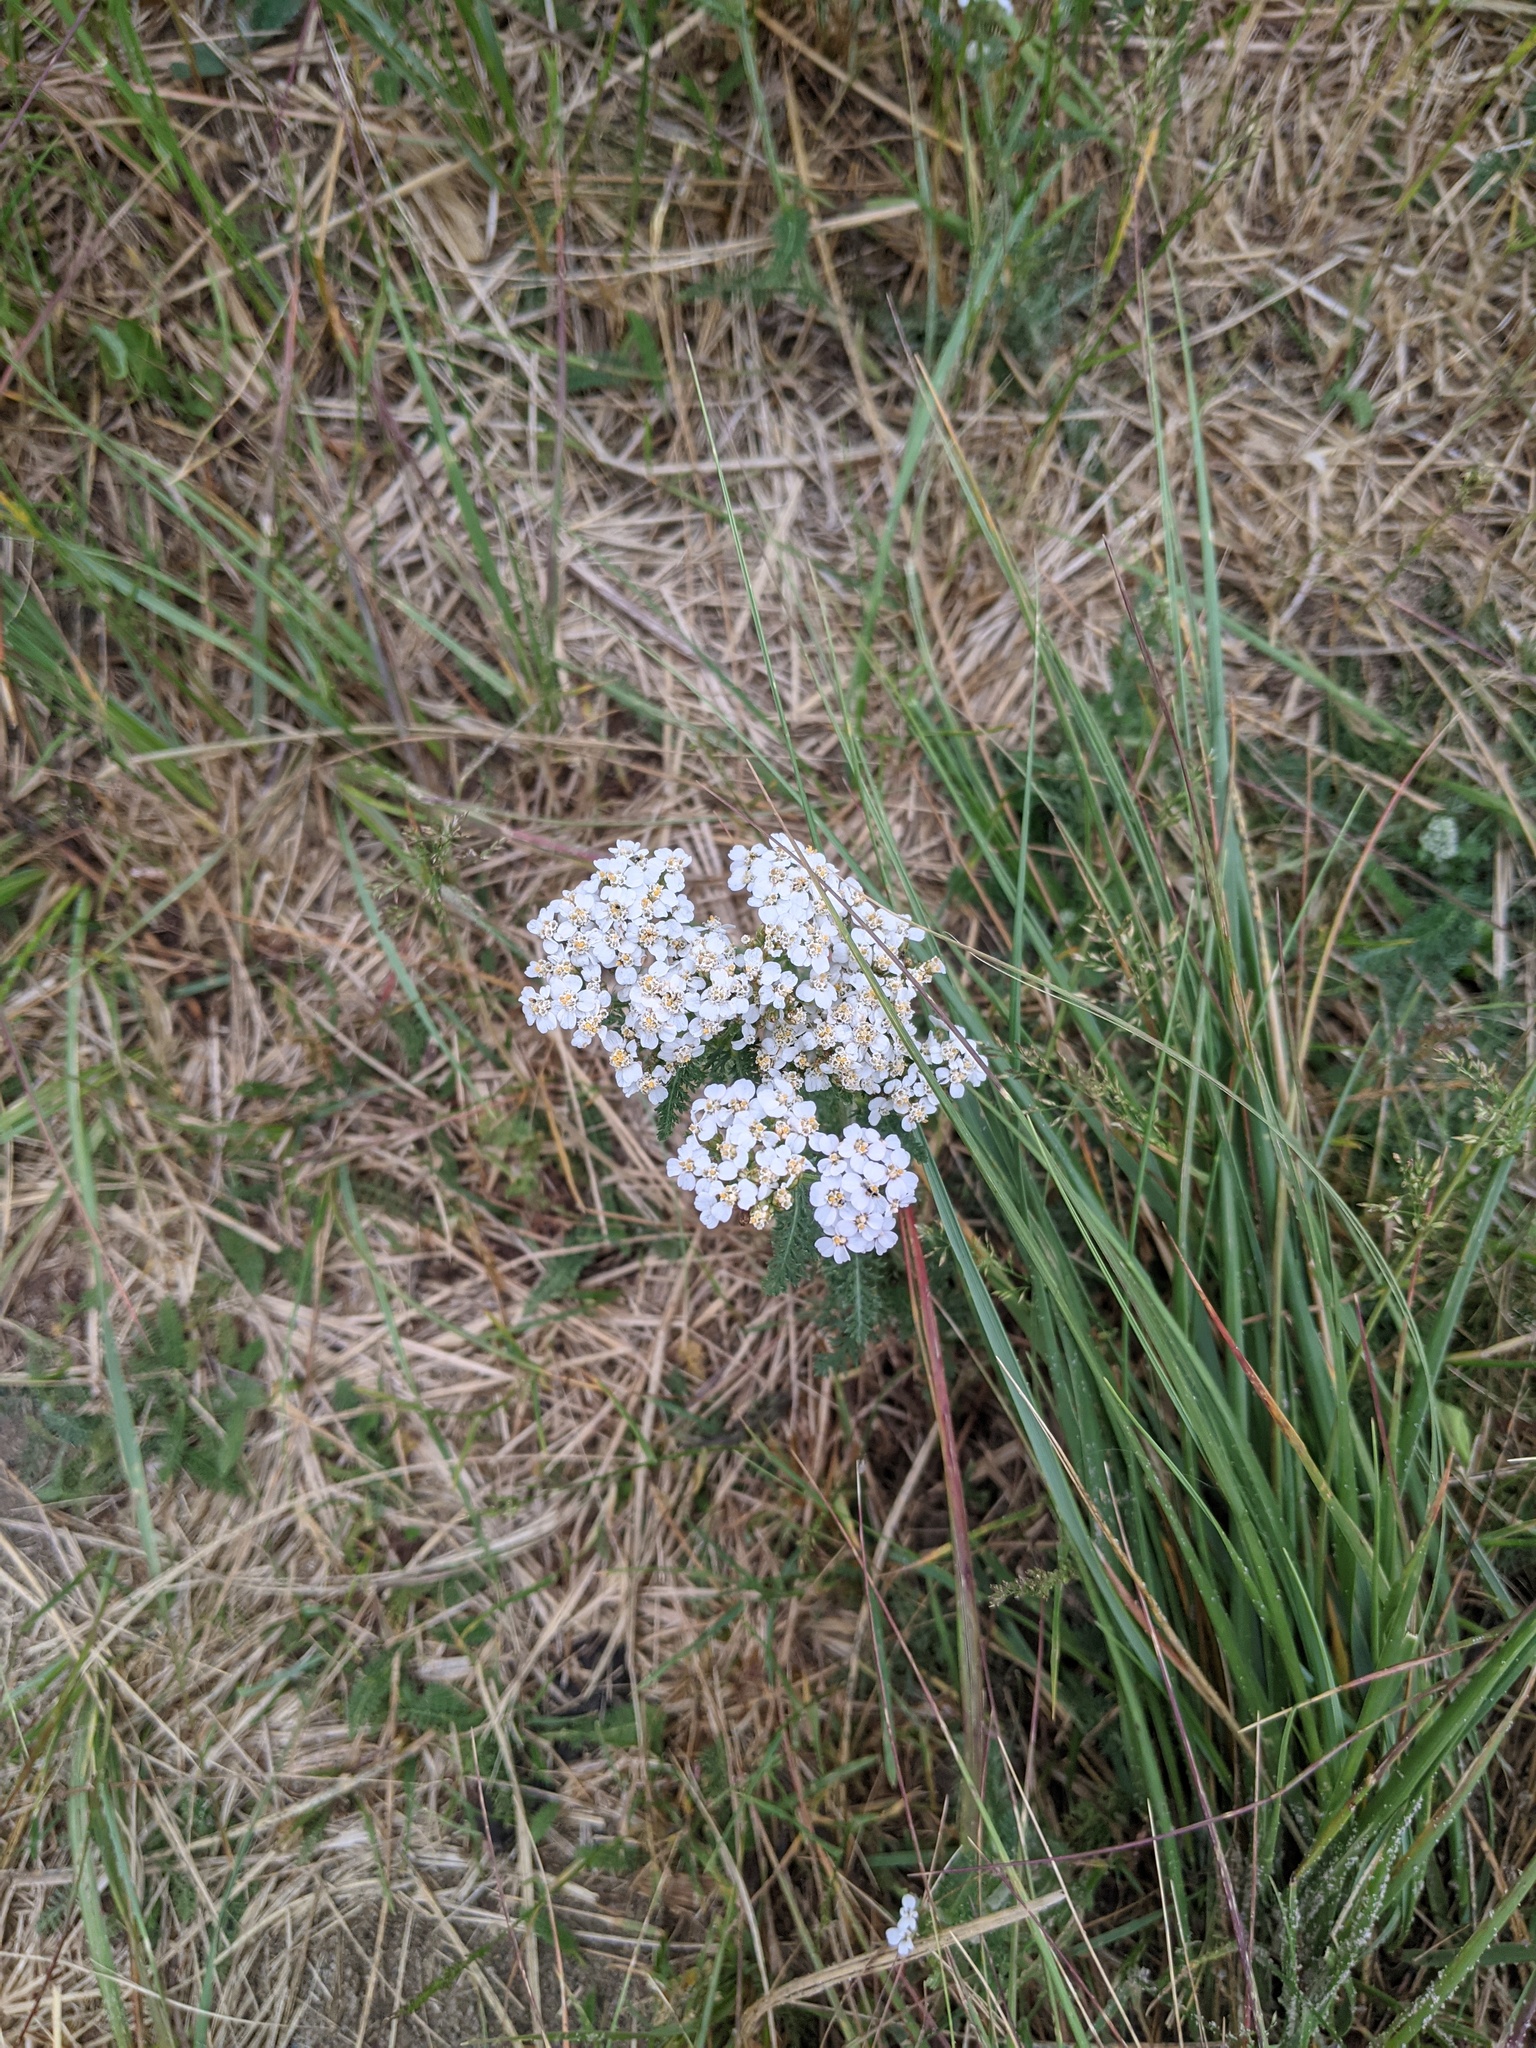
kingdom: Plantae
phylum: Tracheophyta
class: Magnoliopsida
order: Asterales
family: Asteraceae
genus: Achillea
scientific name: Achillea millefolium
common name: Yarrow
